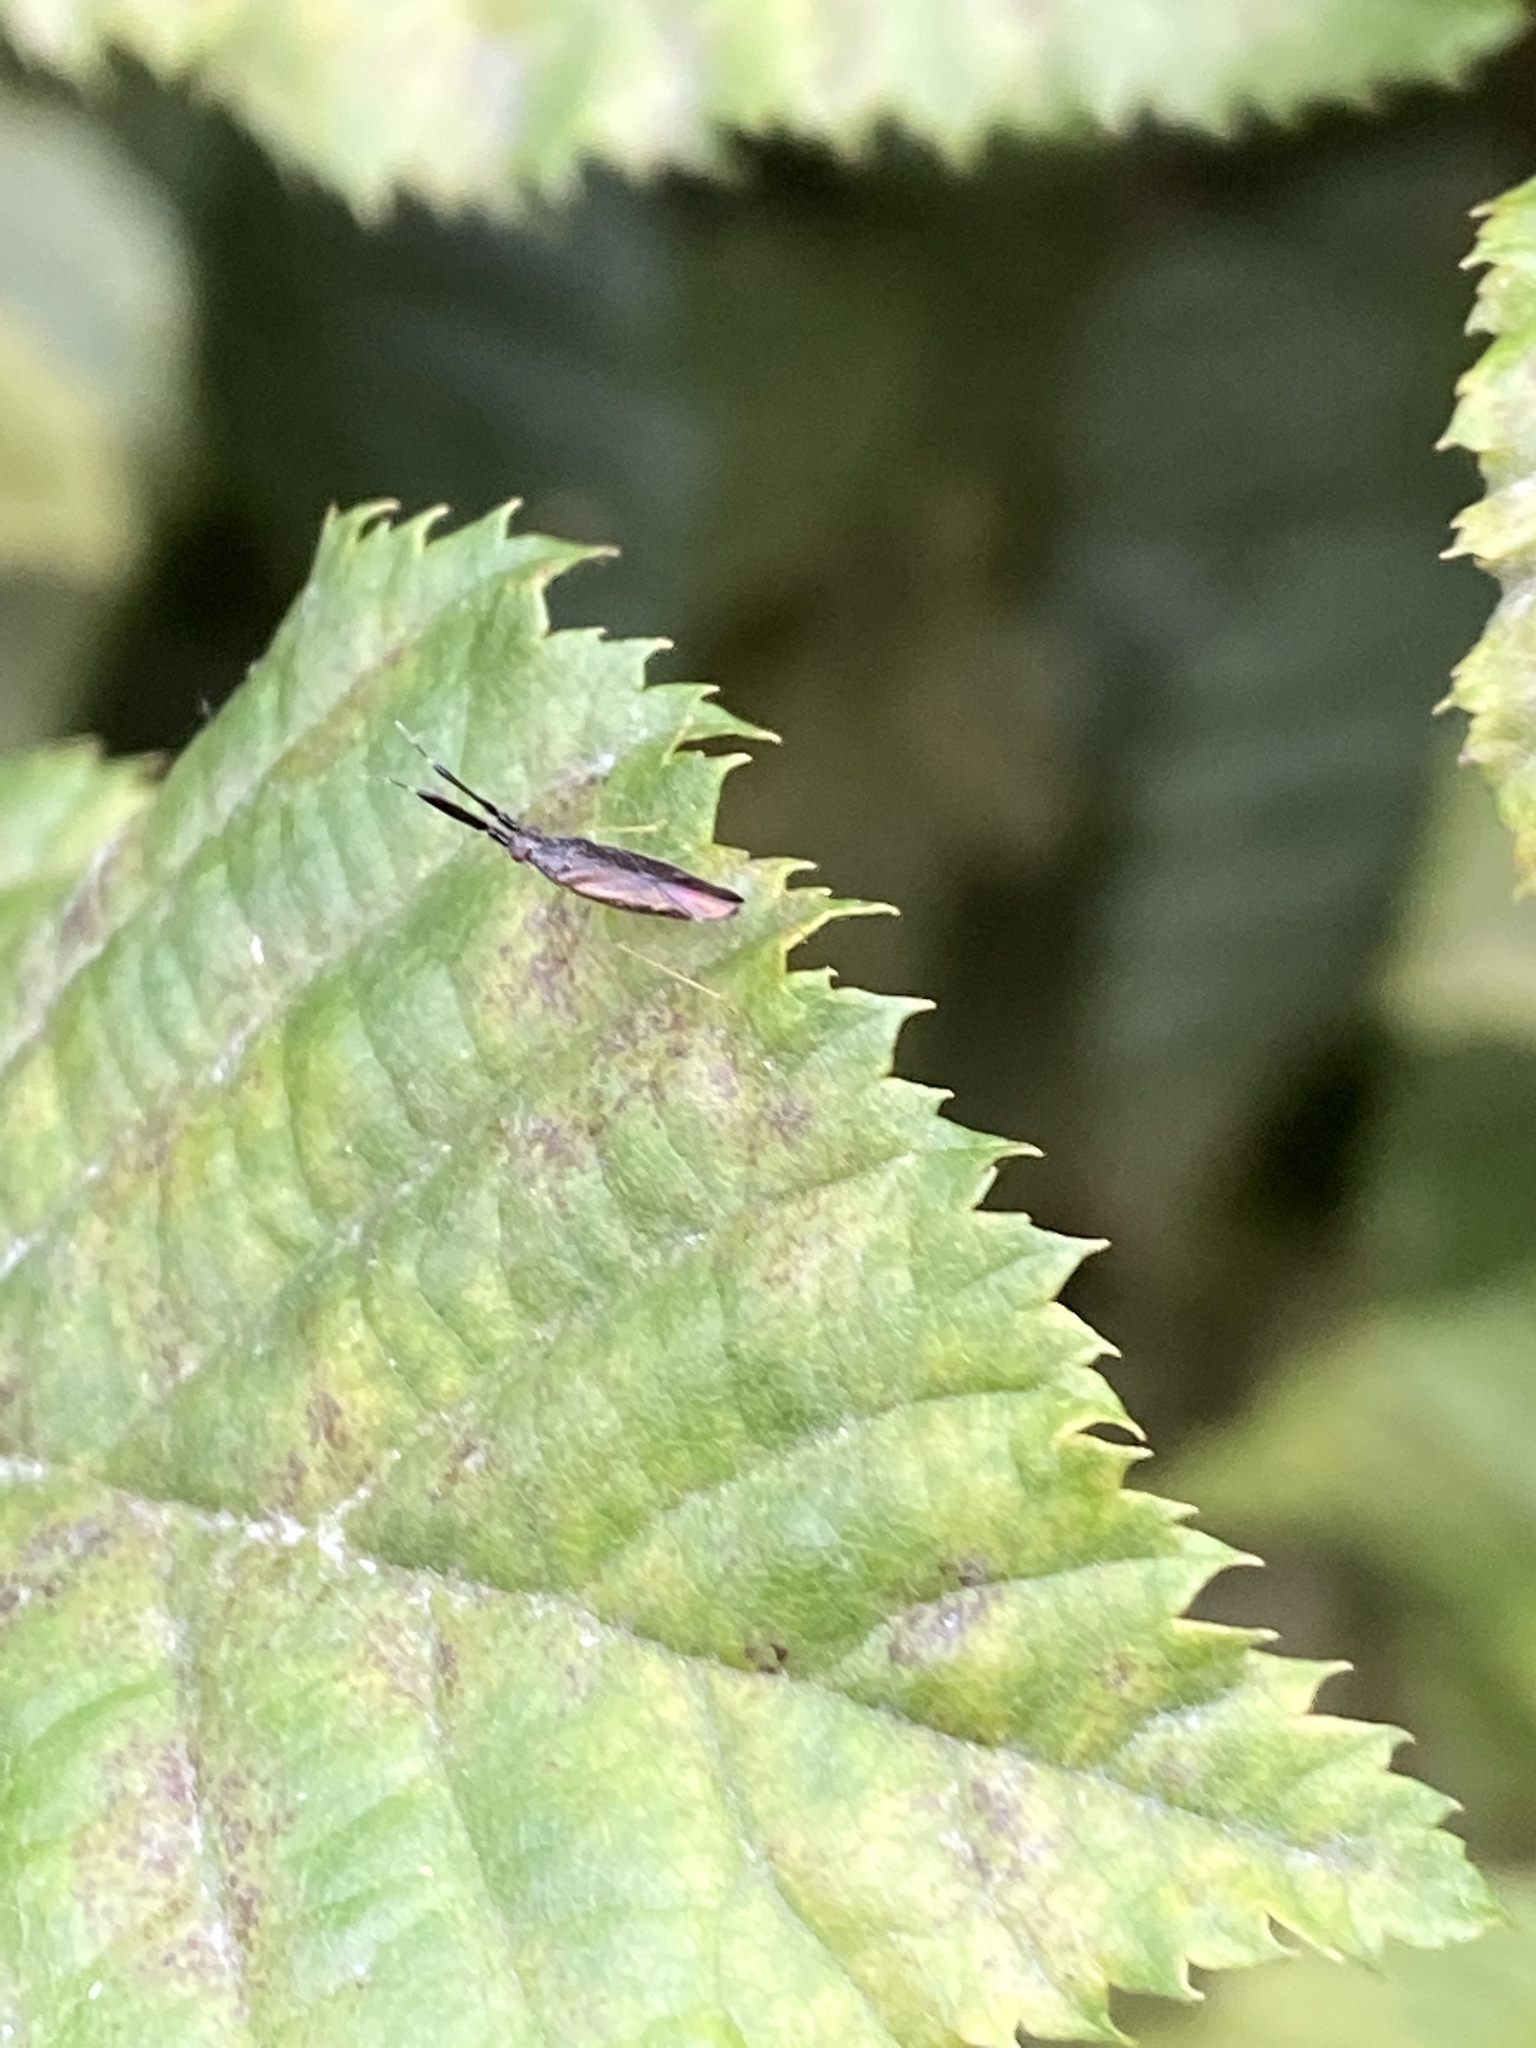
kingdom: Animalia
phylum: Arthropoda
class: Insecta
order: Hemiptera
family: Miridae
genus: Heterotoma
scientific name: Heterotoma planicornis
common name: Plant bug
